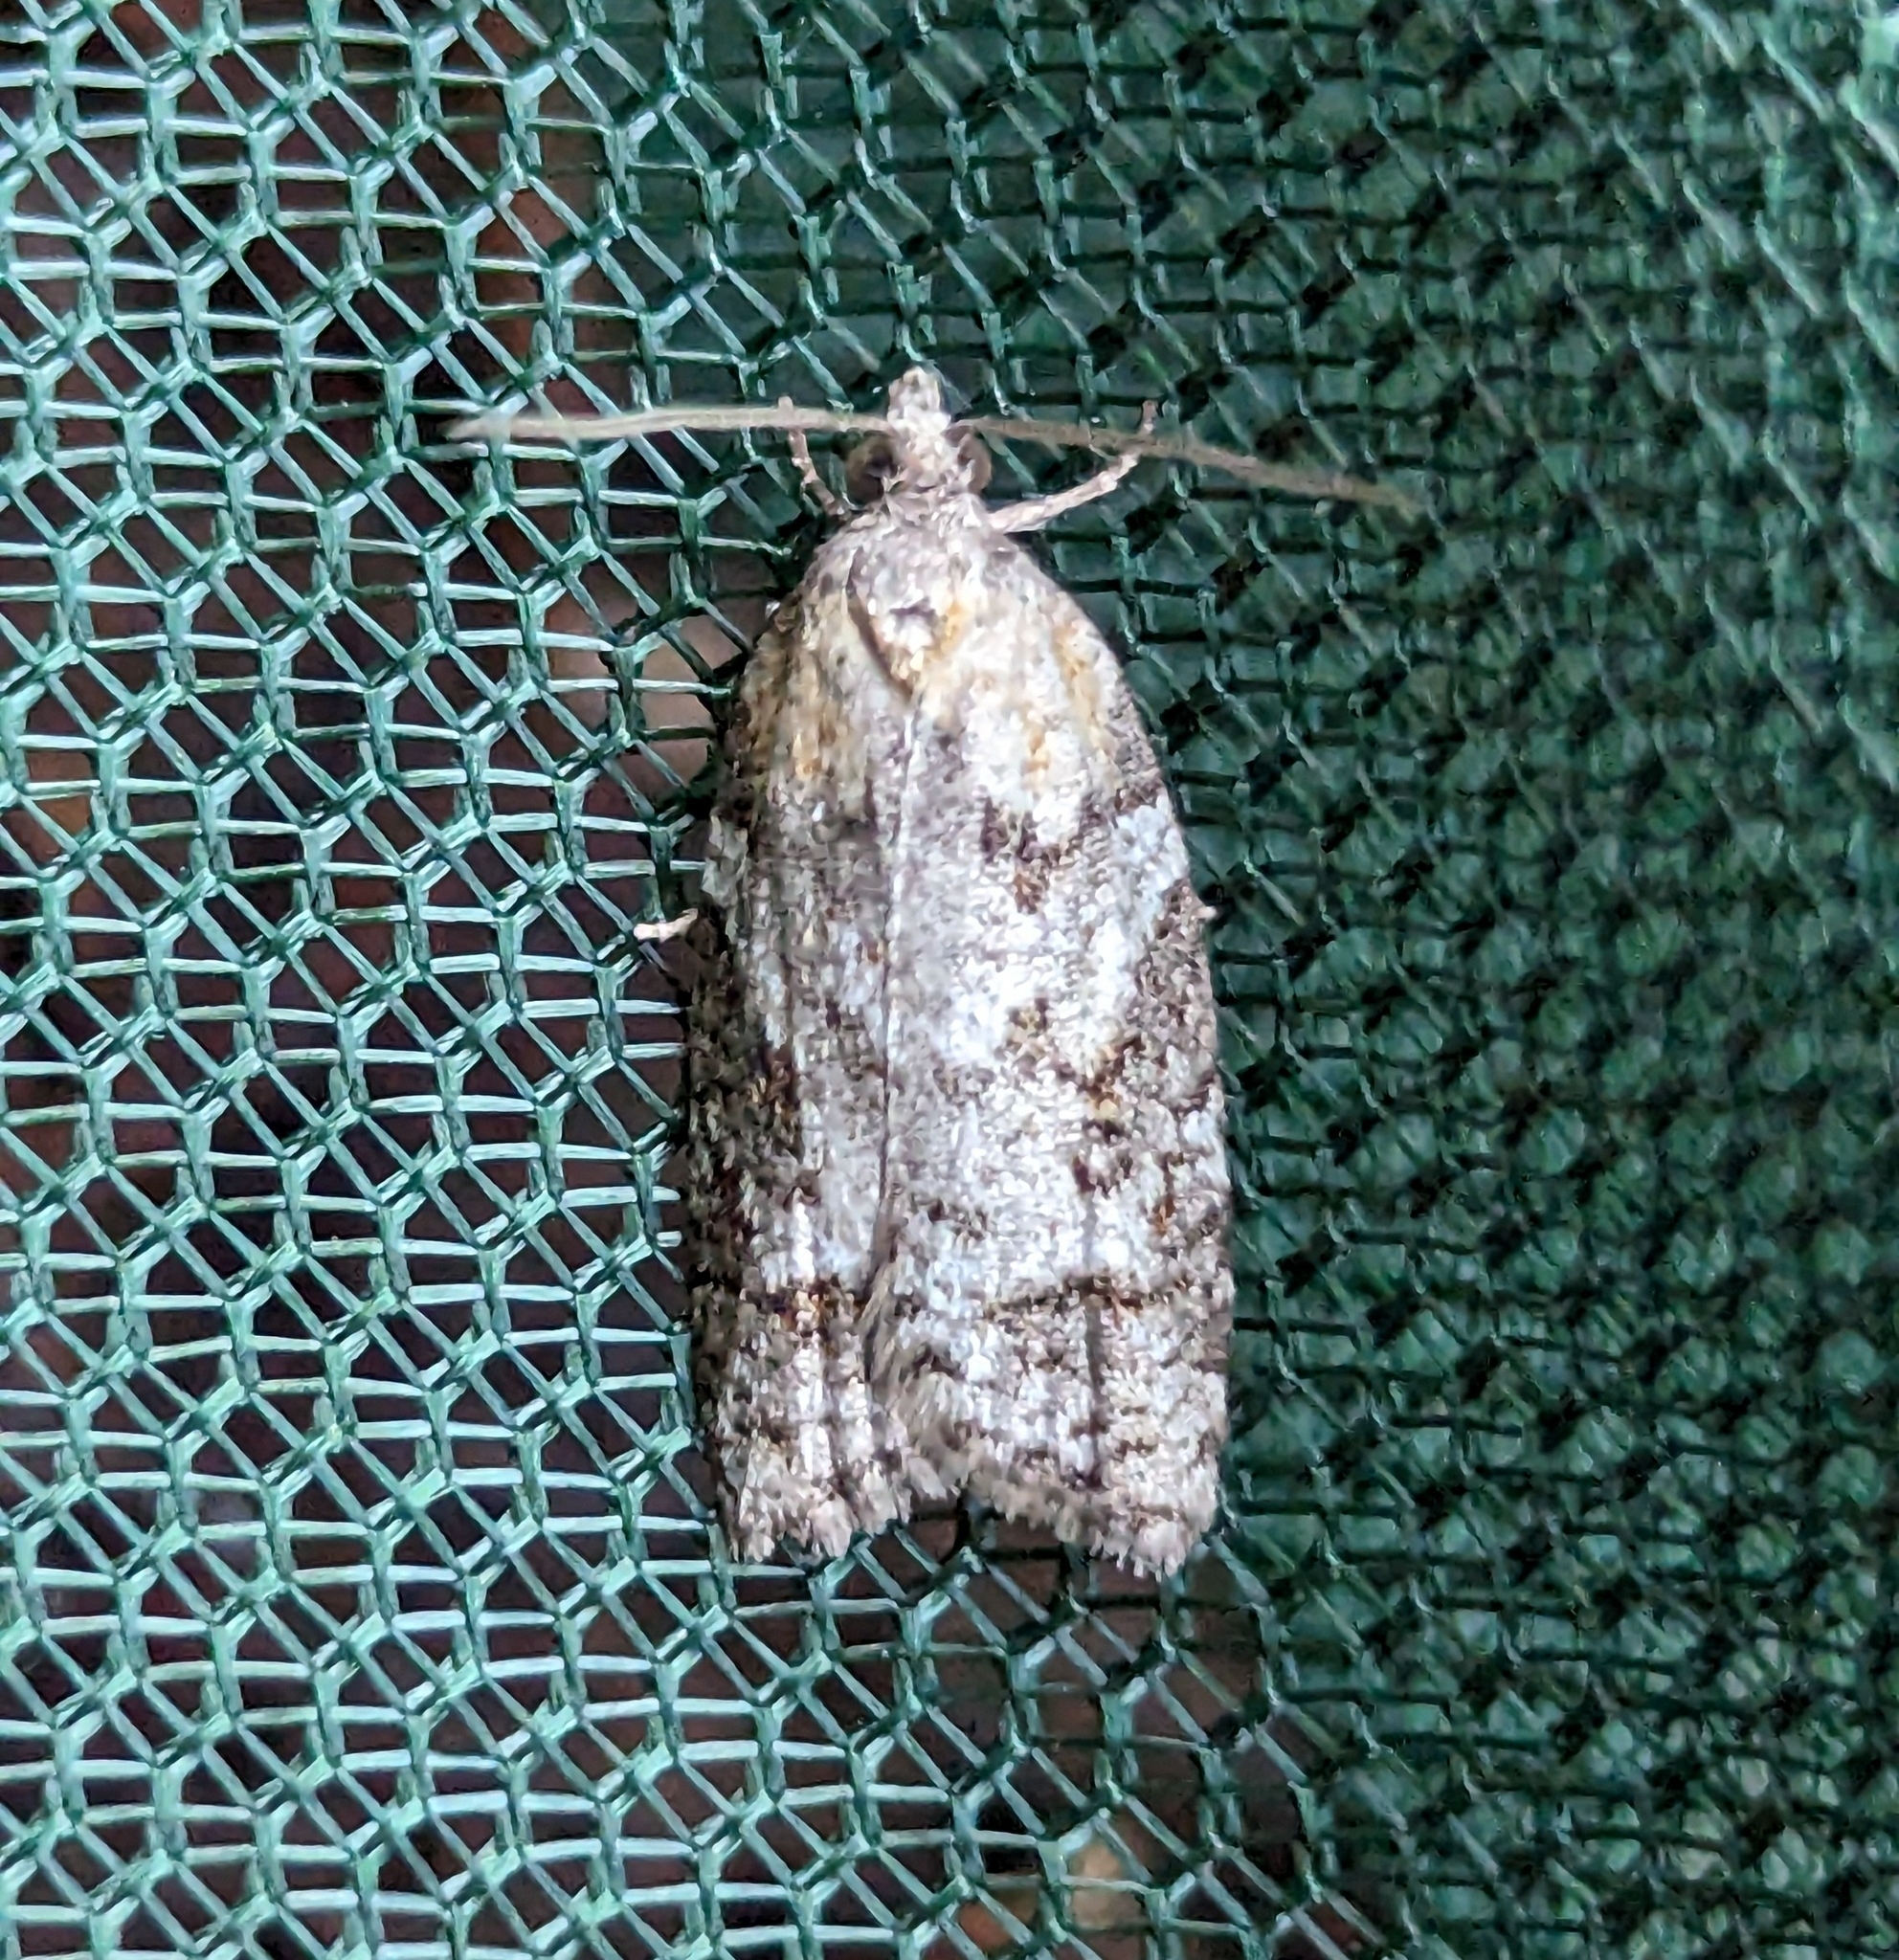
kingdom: Animalia
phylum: Arthropoda
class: Insecta
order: Lepidoptera
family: Tortricidae
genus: Acleris
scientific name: Acleris gloveranus
